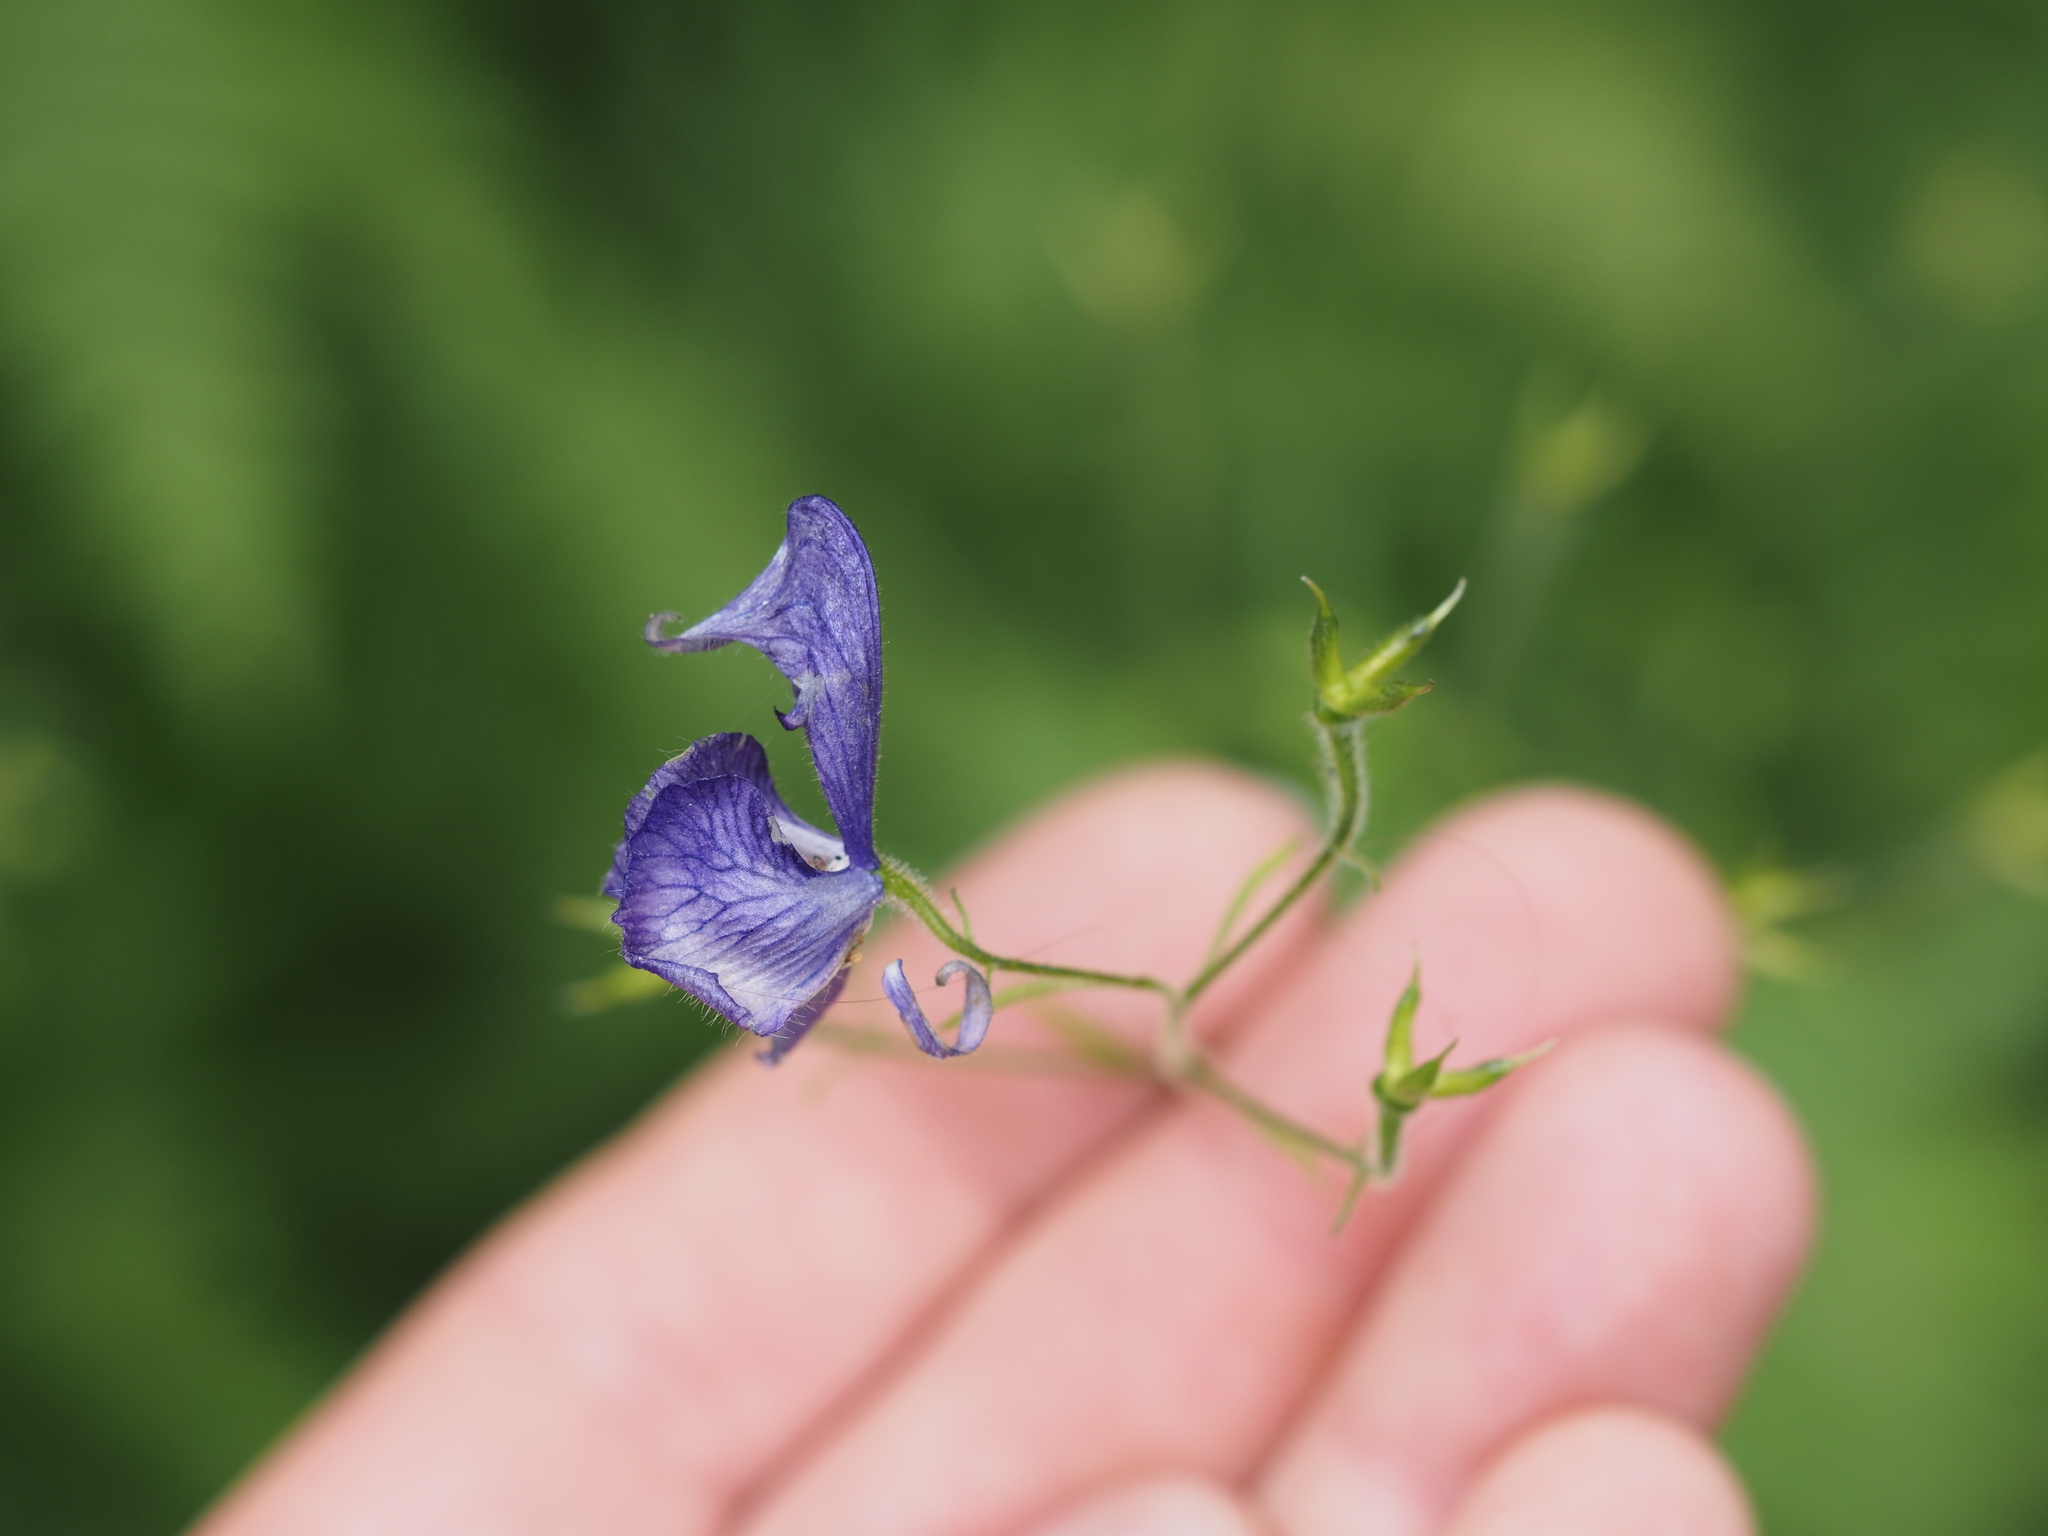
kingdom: Plantae
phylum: Tracheophyta
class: Magnoliopsida
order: Ranunculales
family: Ranunculaceae
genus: Aconitum
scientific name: Aconitum columbianum
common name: Columbia aconite
